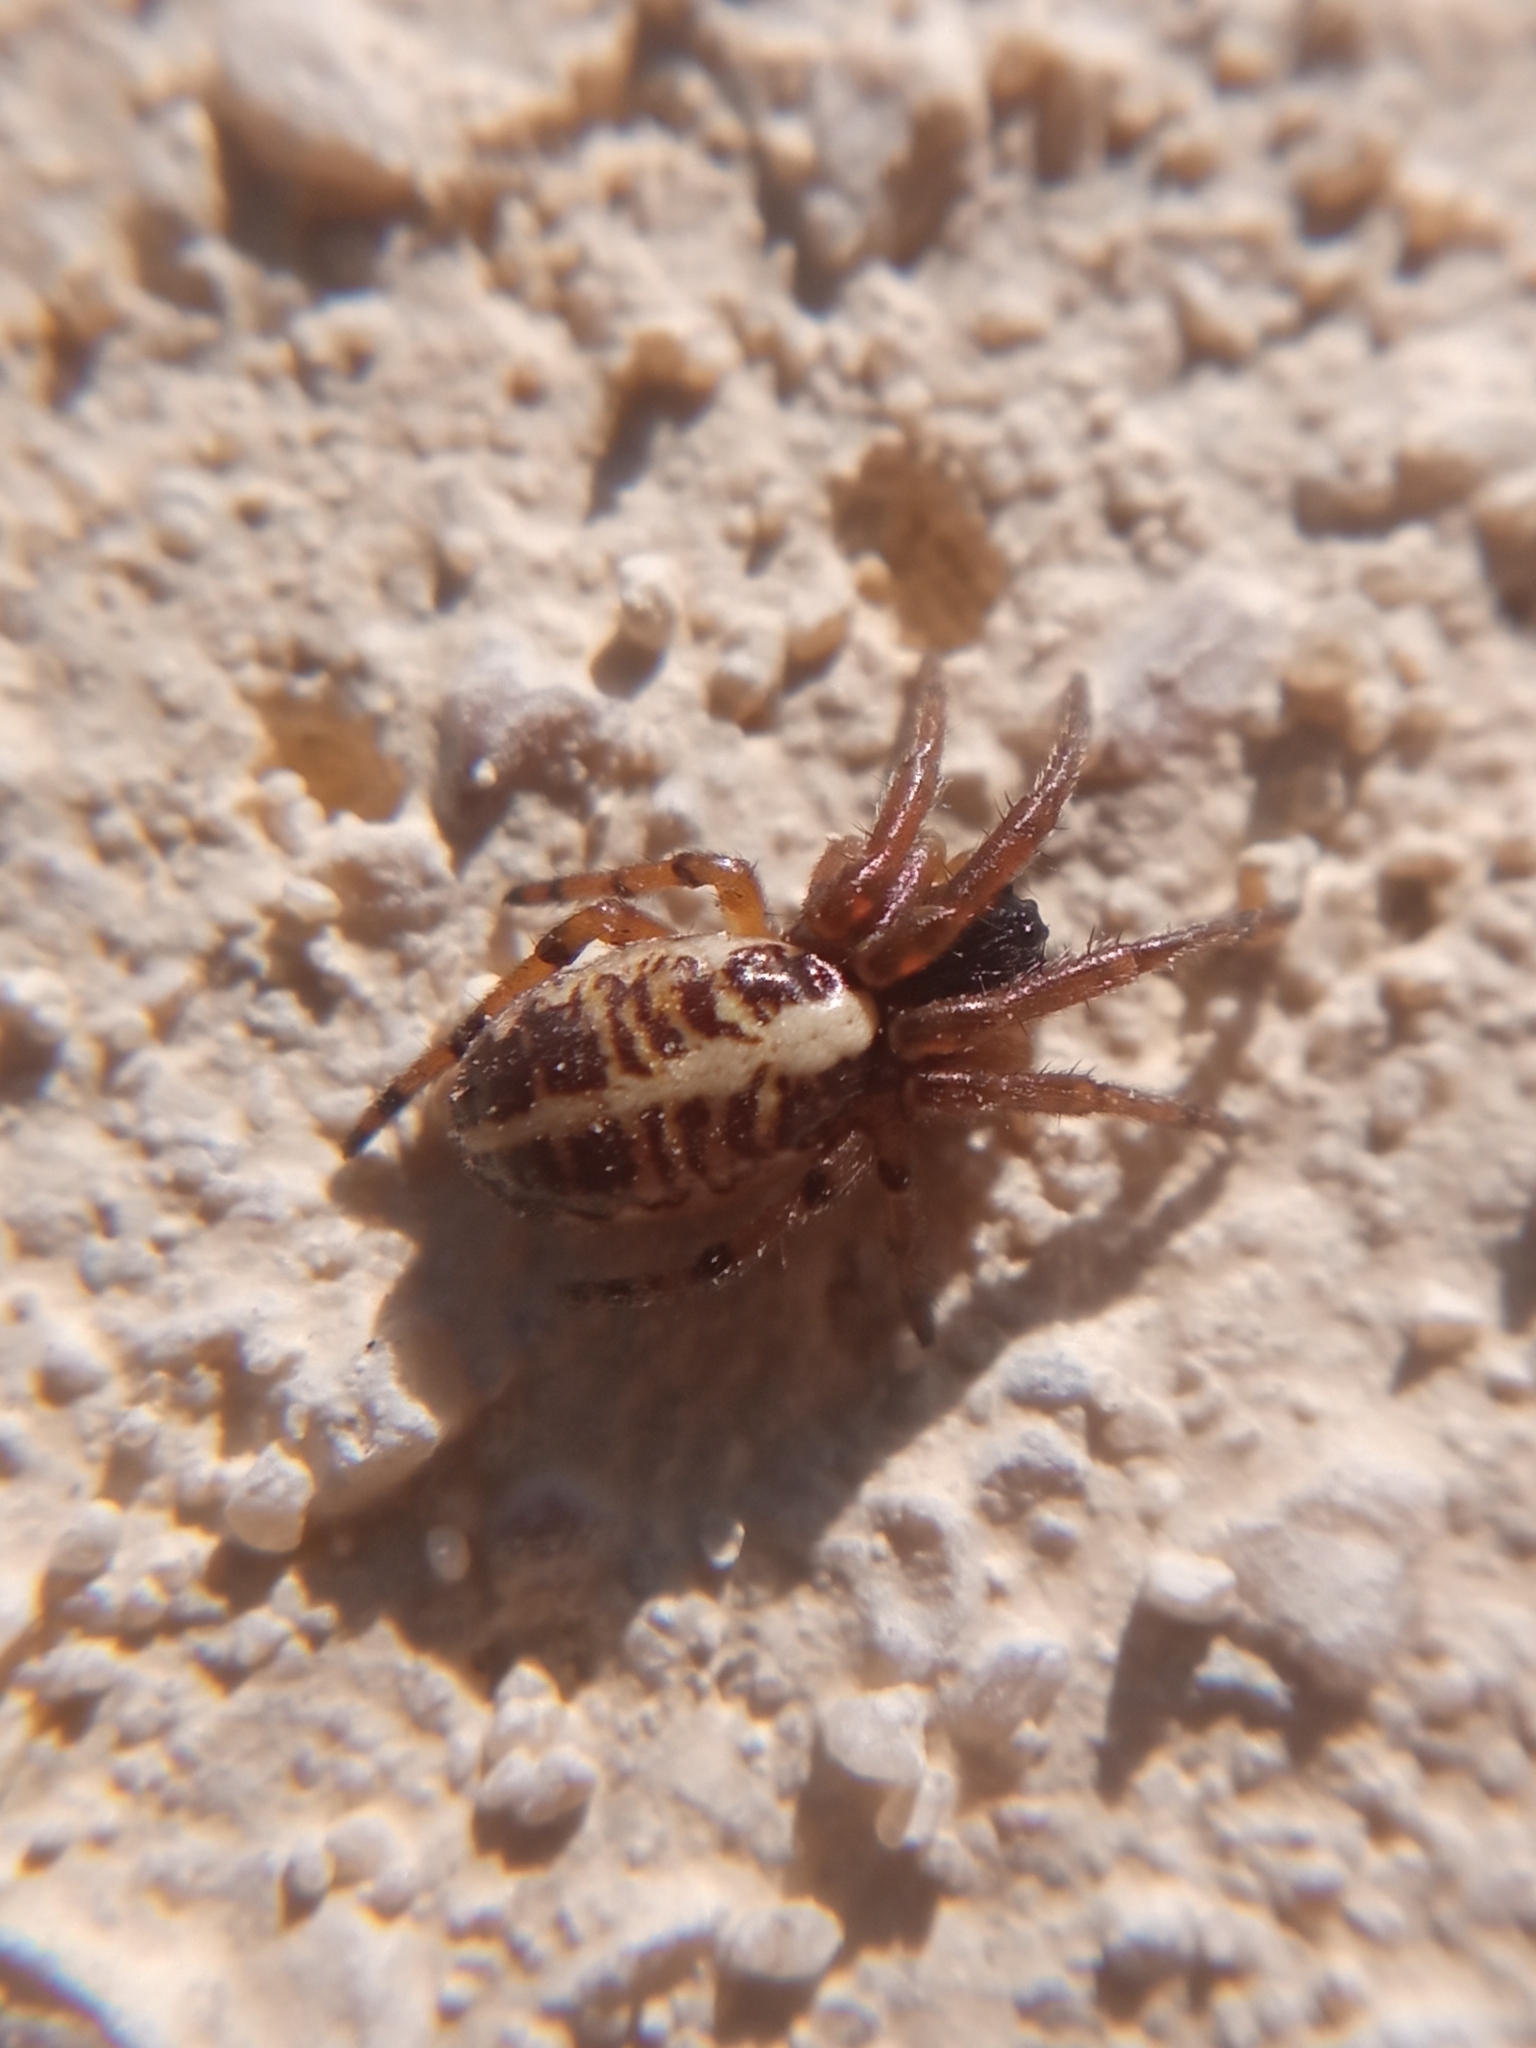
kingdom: Animalia
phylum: Arthropoda
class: Arachnida
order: Araneae
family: Araneidae
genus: Singa
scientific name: Singa hamata
